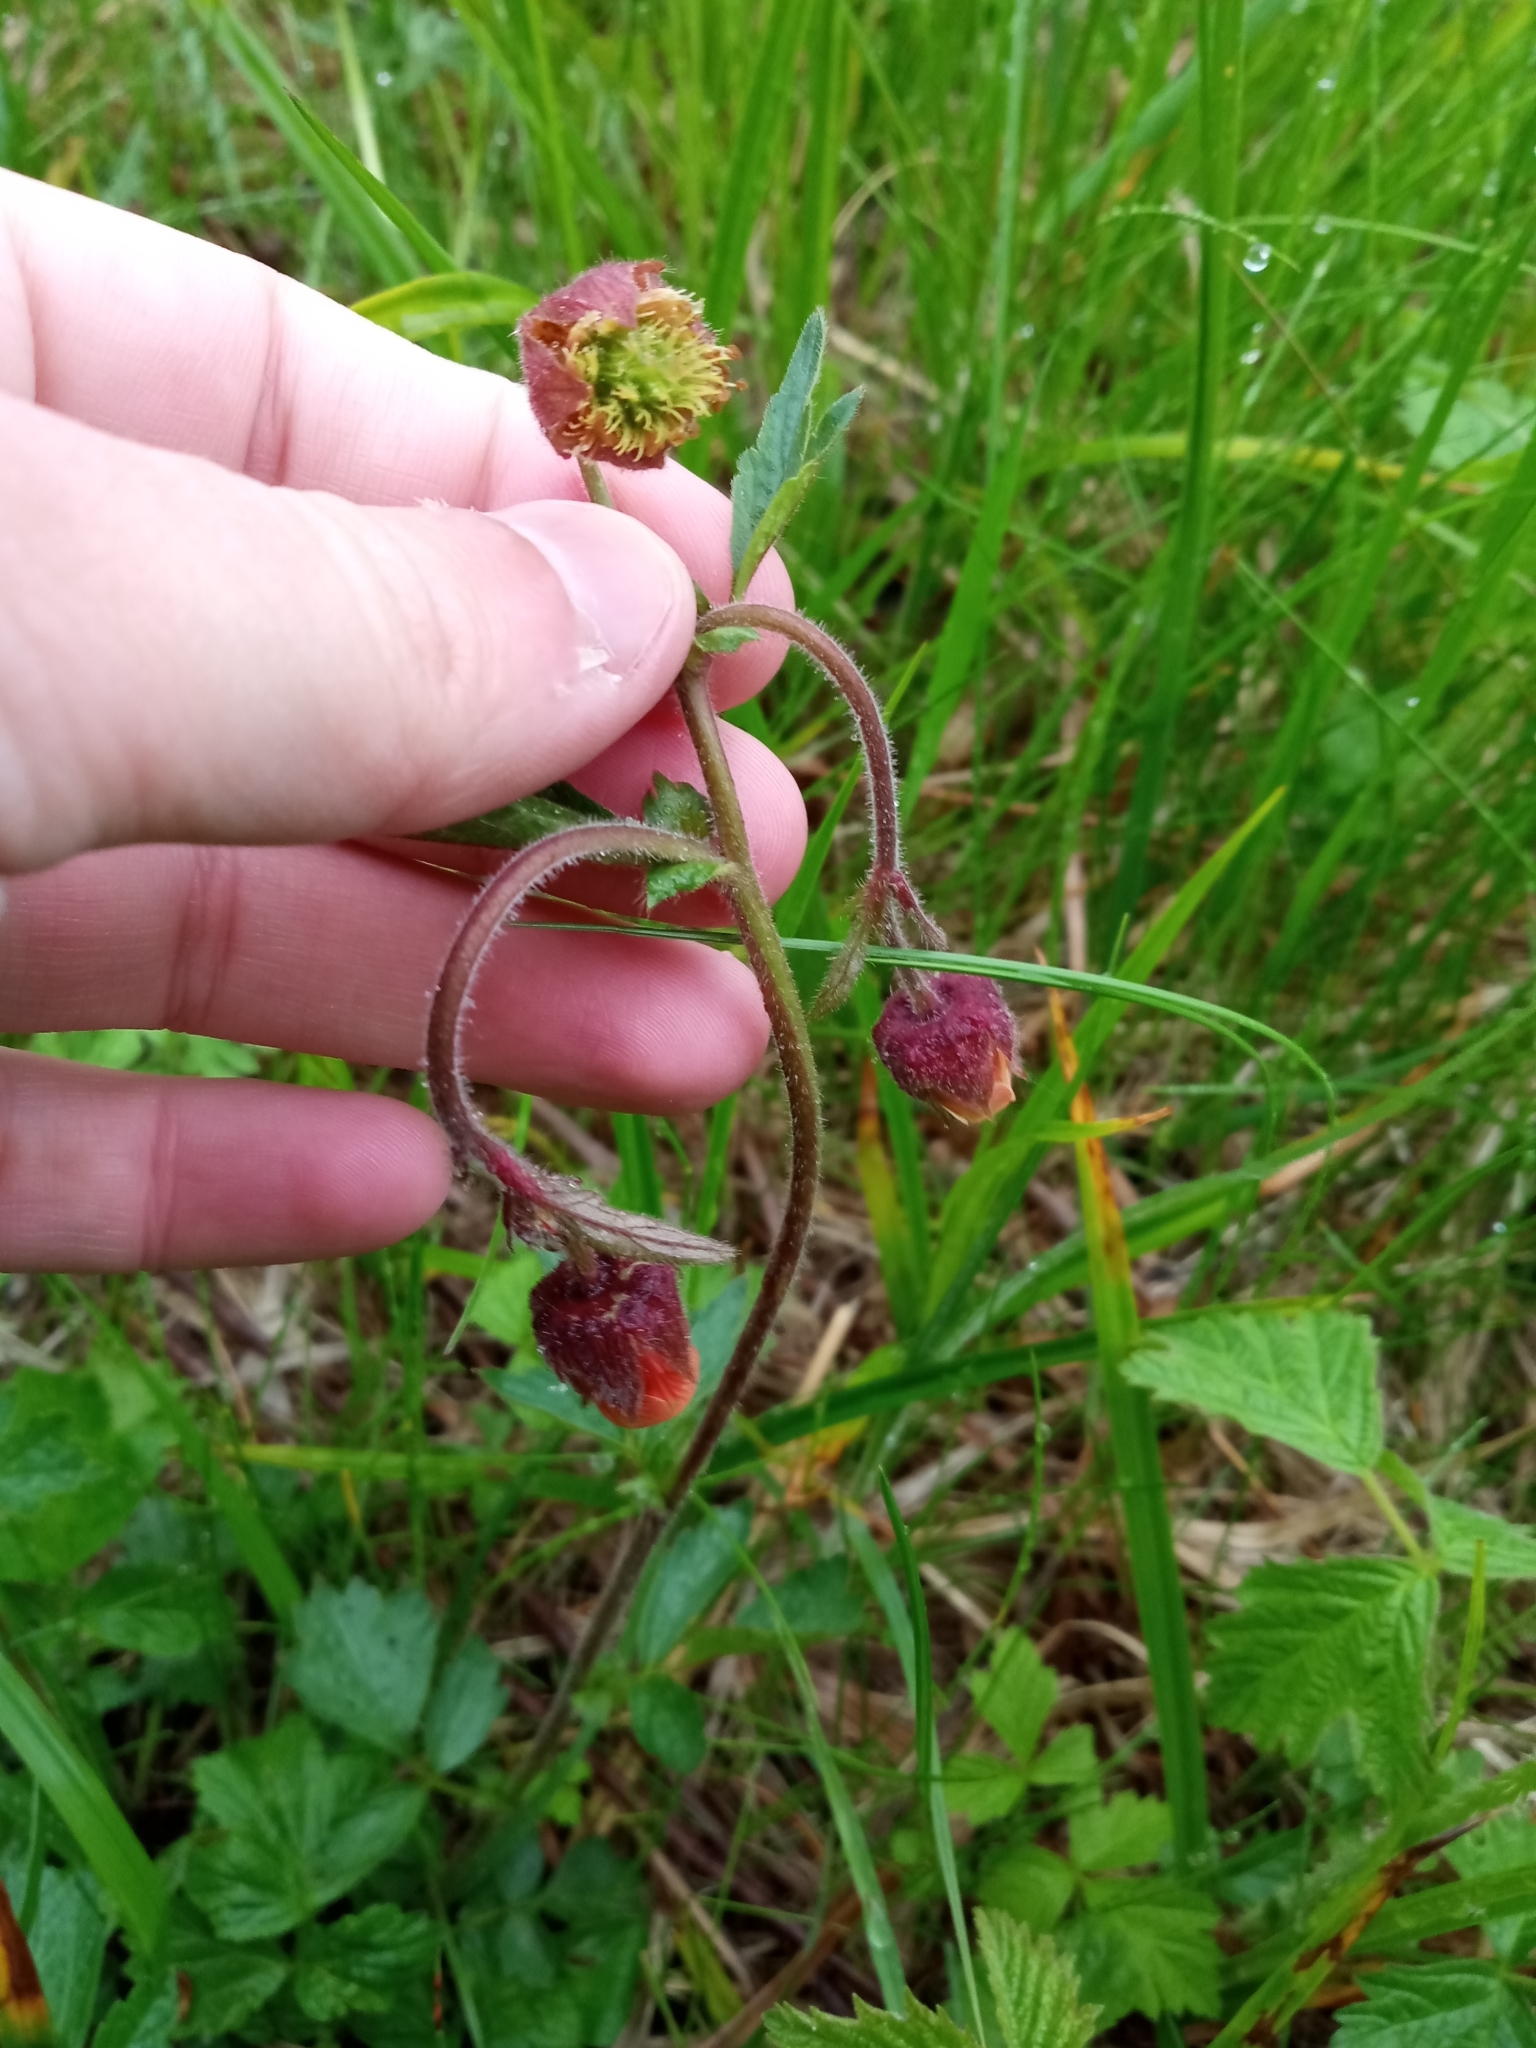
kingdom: Plantae
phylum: Tracheophyta
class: Magnoliopsida
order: Rosales
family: Rosaceae
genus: Geum
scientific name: Geum rivale
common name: Water avens
